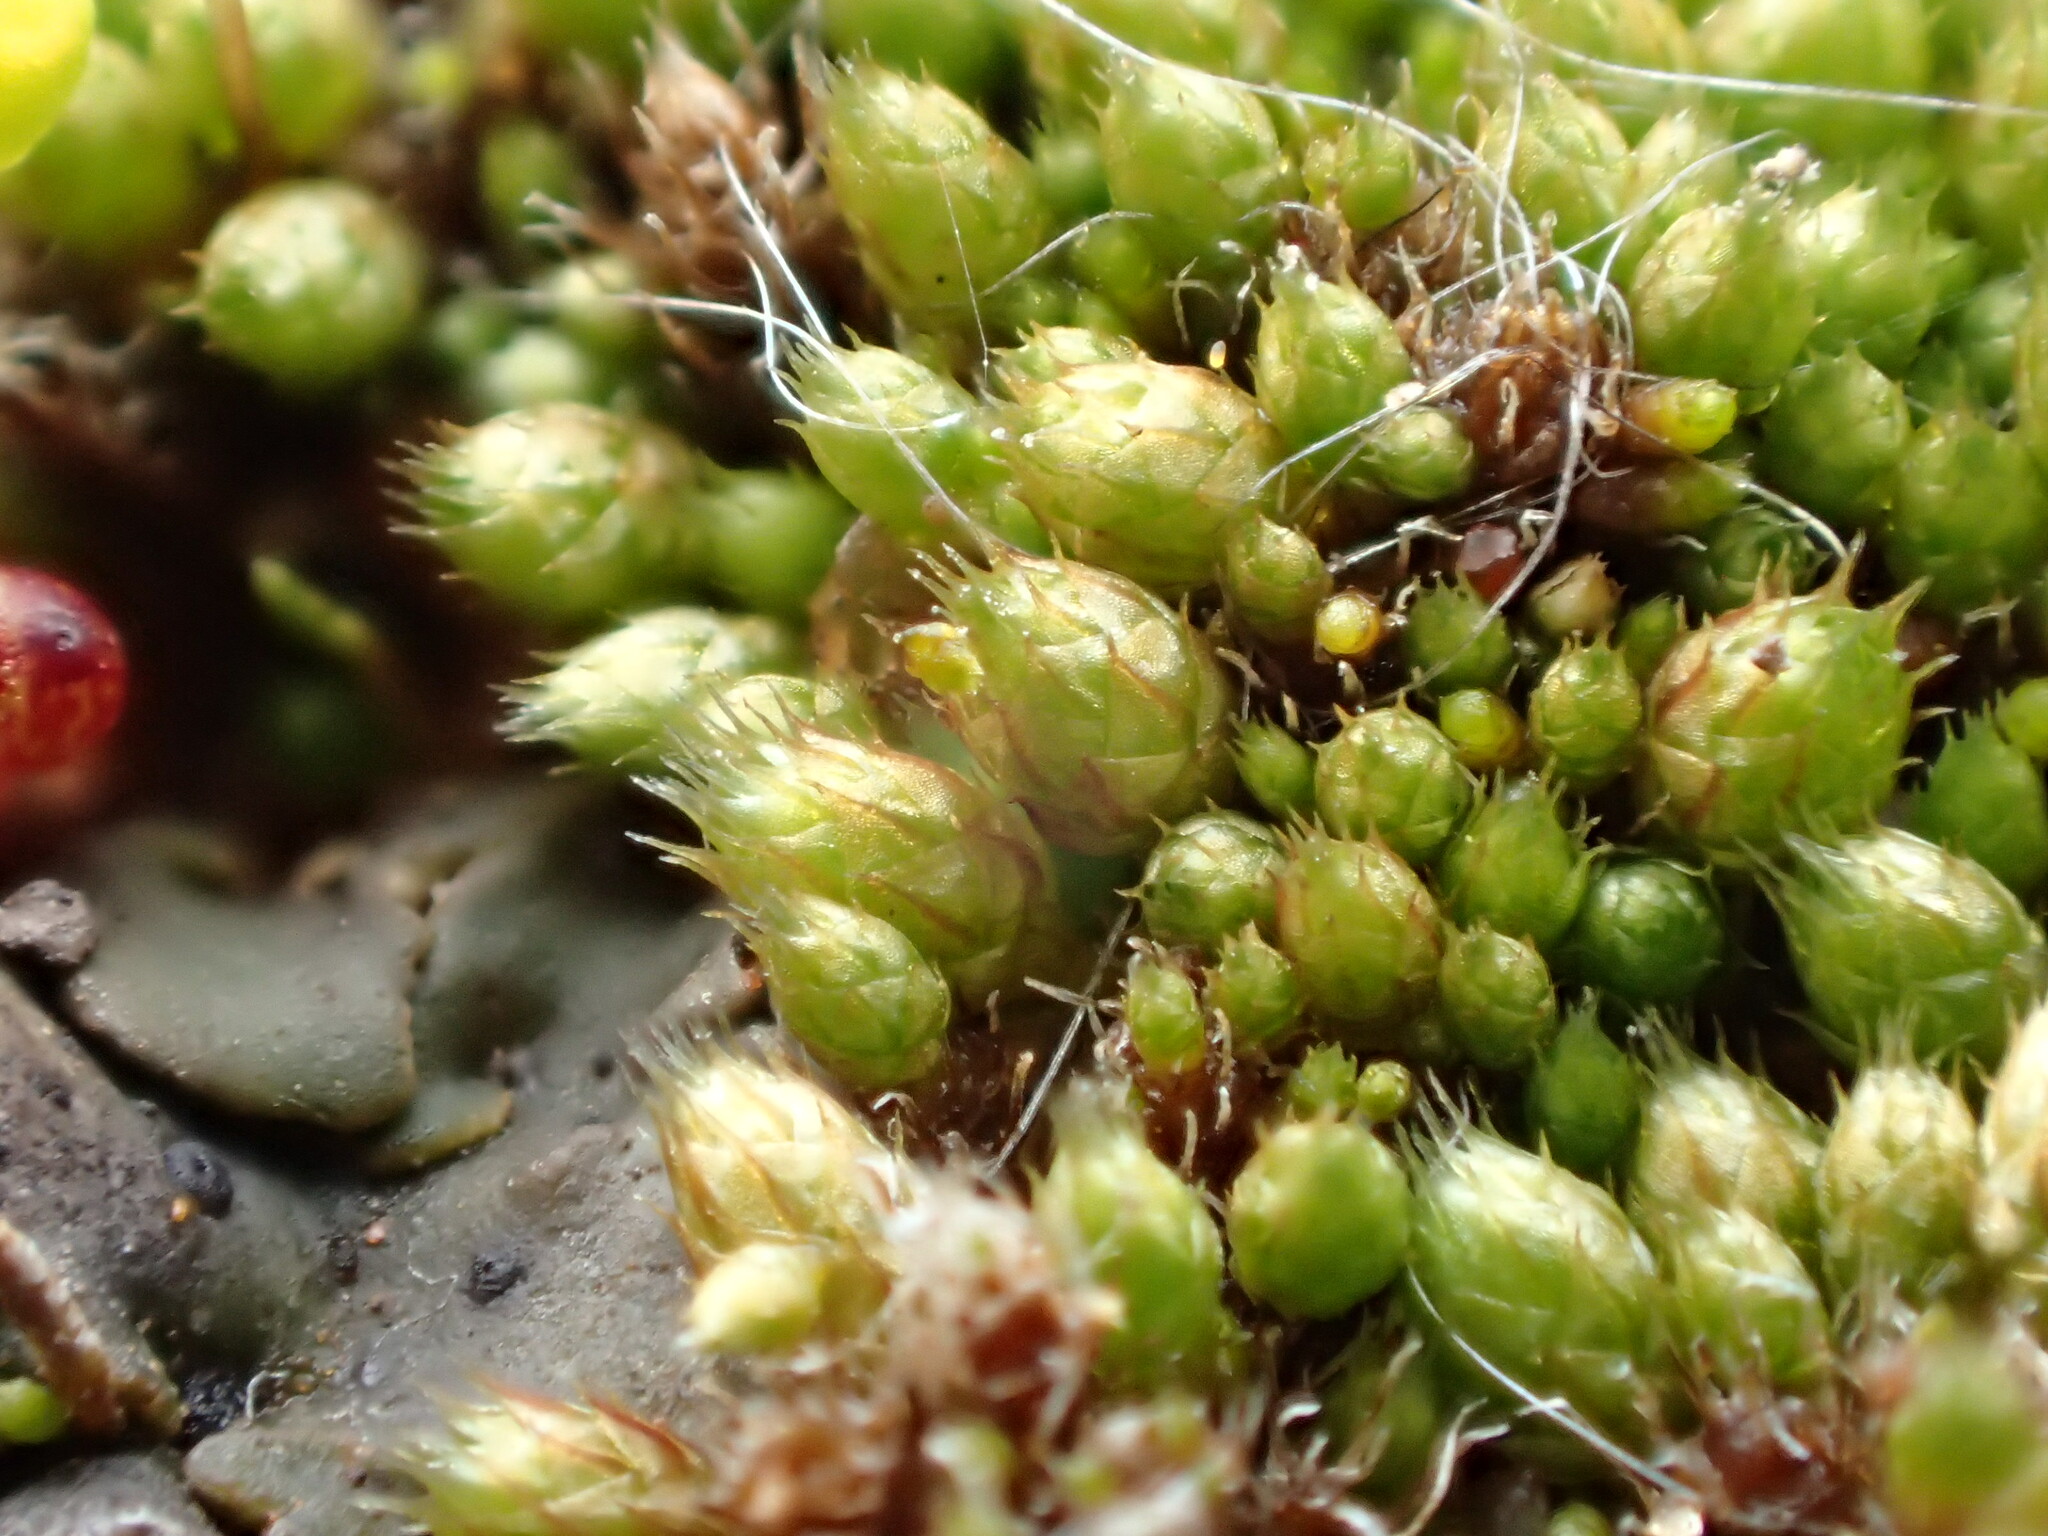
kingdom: Plantae
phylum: Bryophyta
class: Bryopsida
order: Gigaspermales
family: Gigaspermaceae
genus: Gigaspermum
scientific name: Gigaspermum repens
